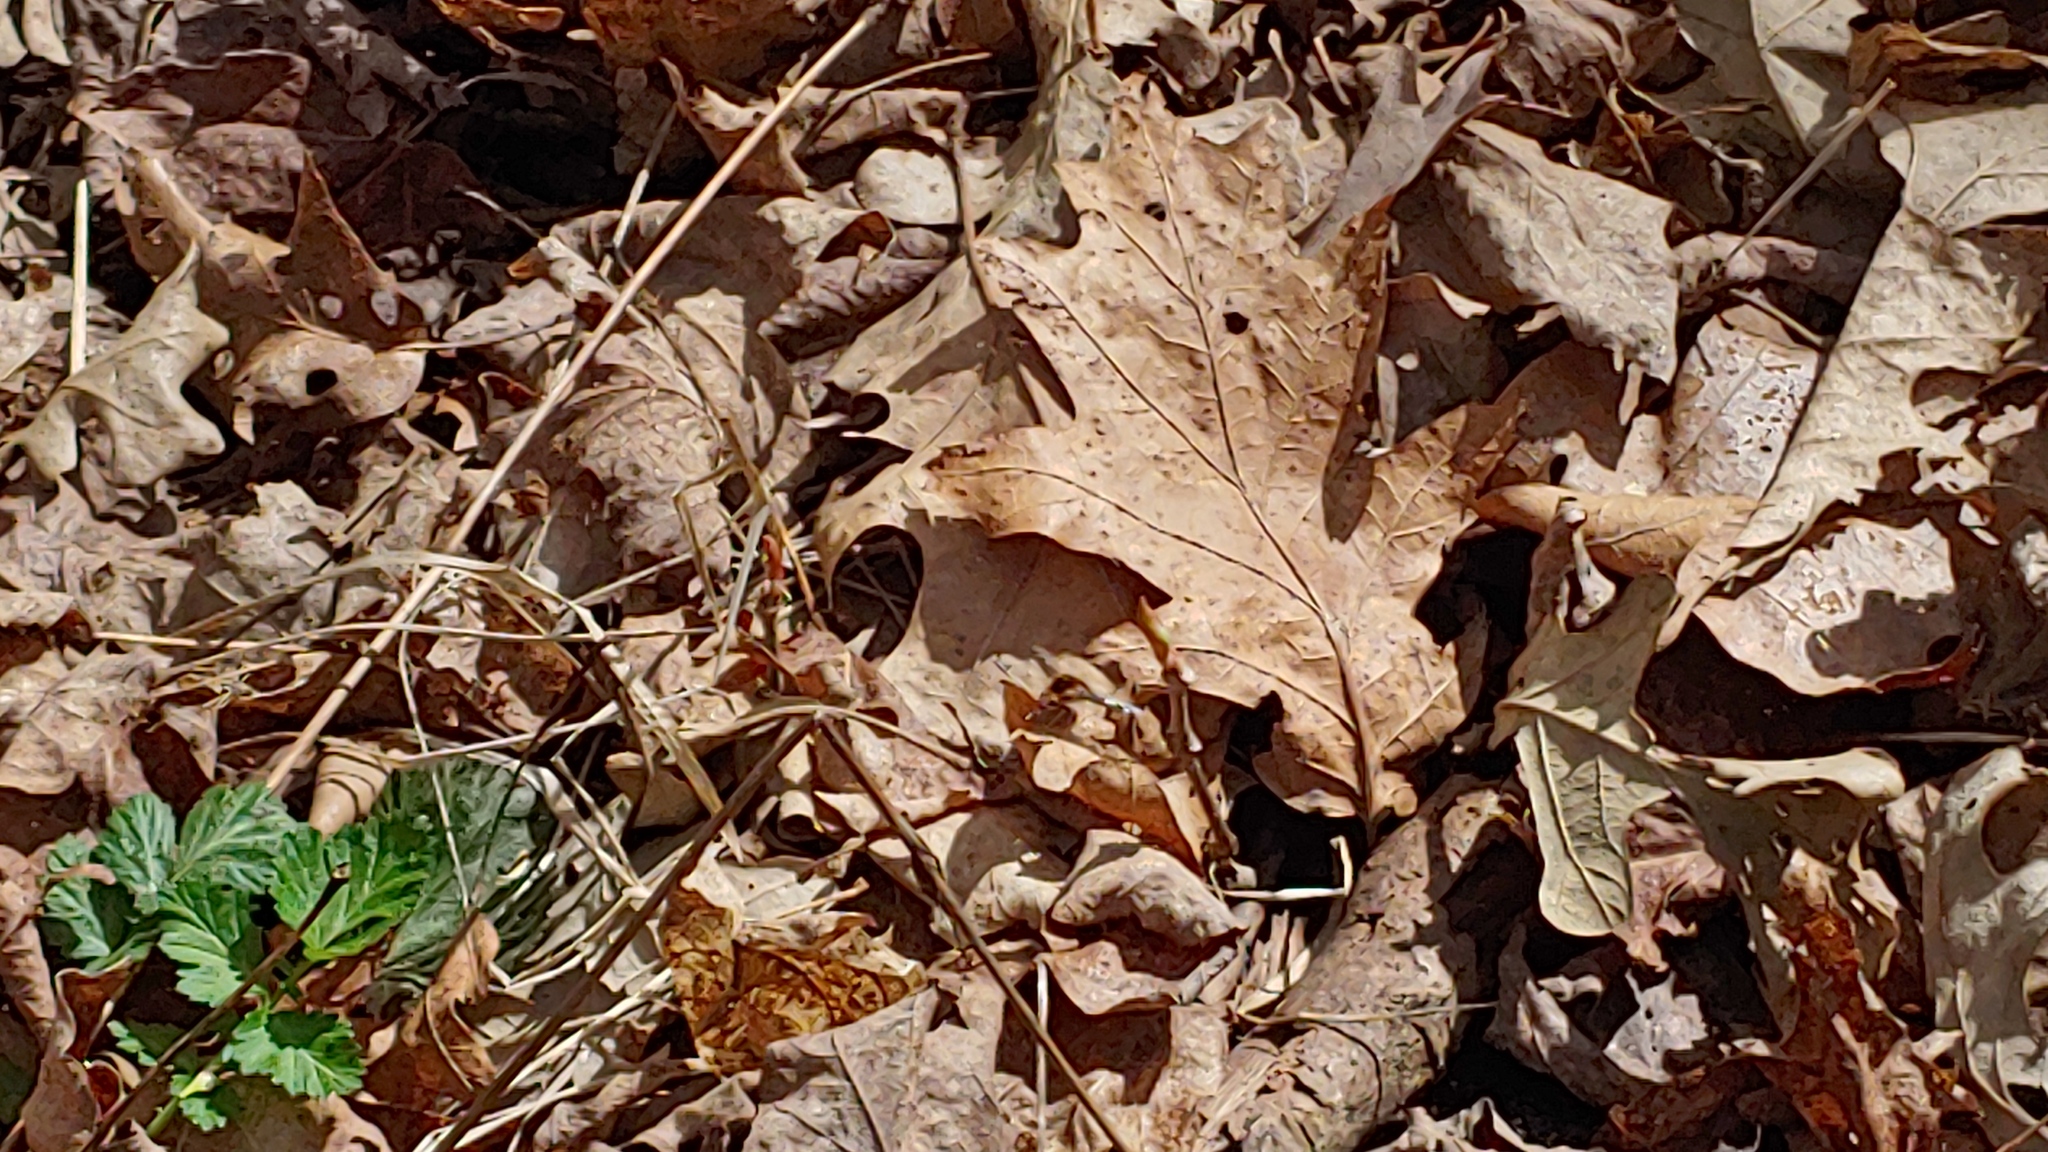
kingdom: Animalia
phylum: Arthropoda
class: Insecta
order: Diptera
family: Bombyliidae
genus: Bombylius
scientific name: Bombylius major
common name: Bee fly
